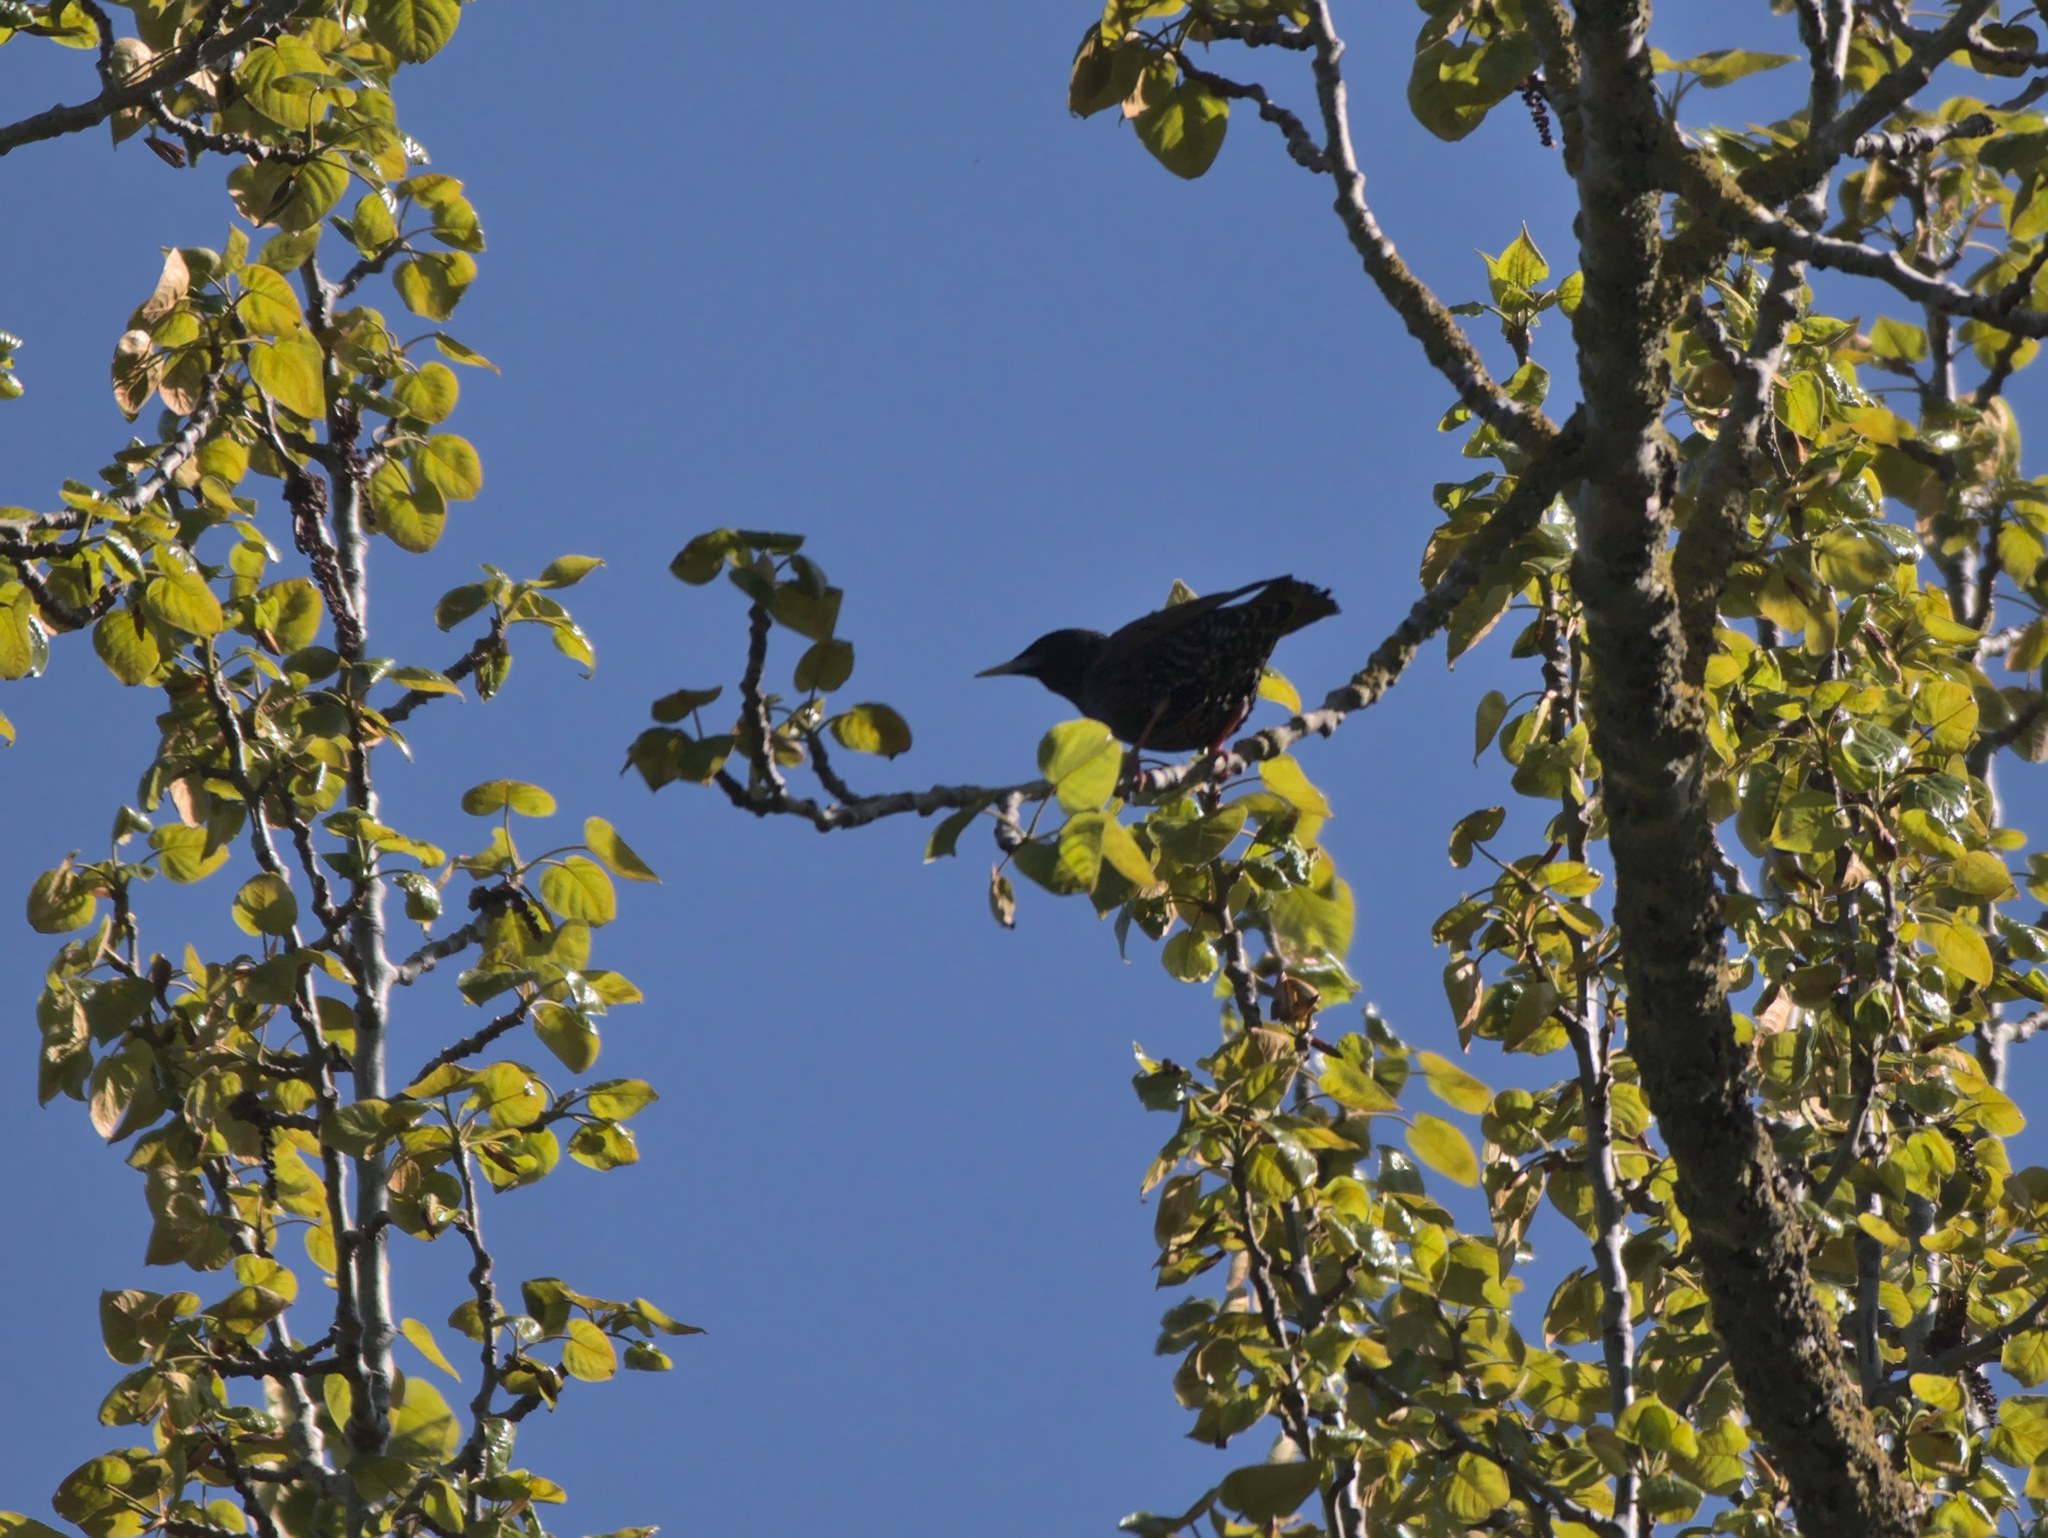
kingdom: Animalia
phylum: Chordata
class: Aves
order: Passeriformes
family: Sturnidae
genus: Sturnus
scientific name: Sturnus vulgaris
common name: Common starling
